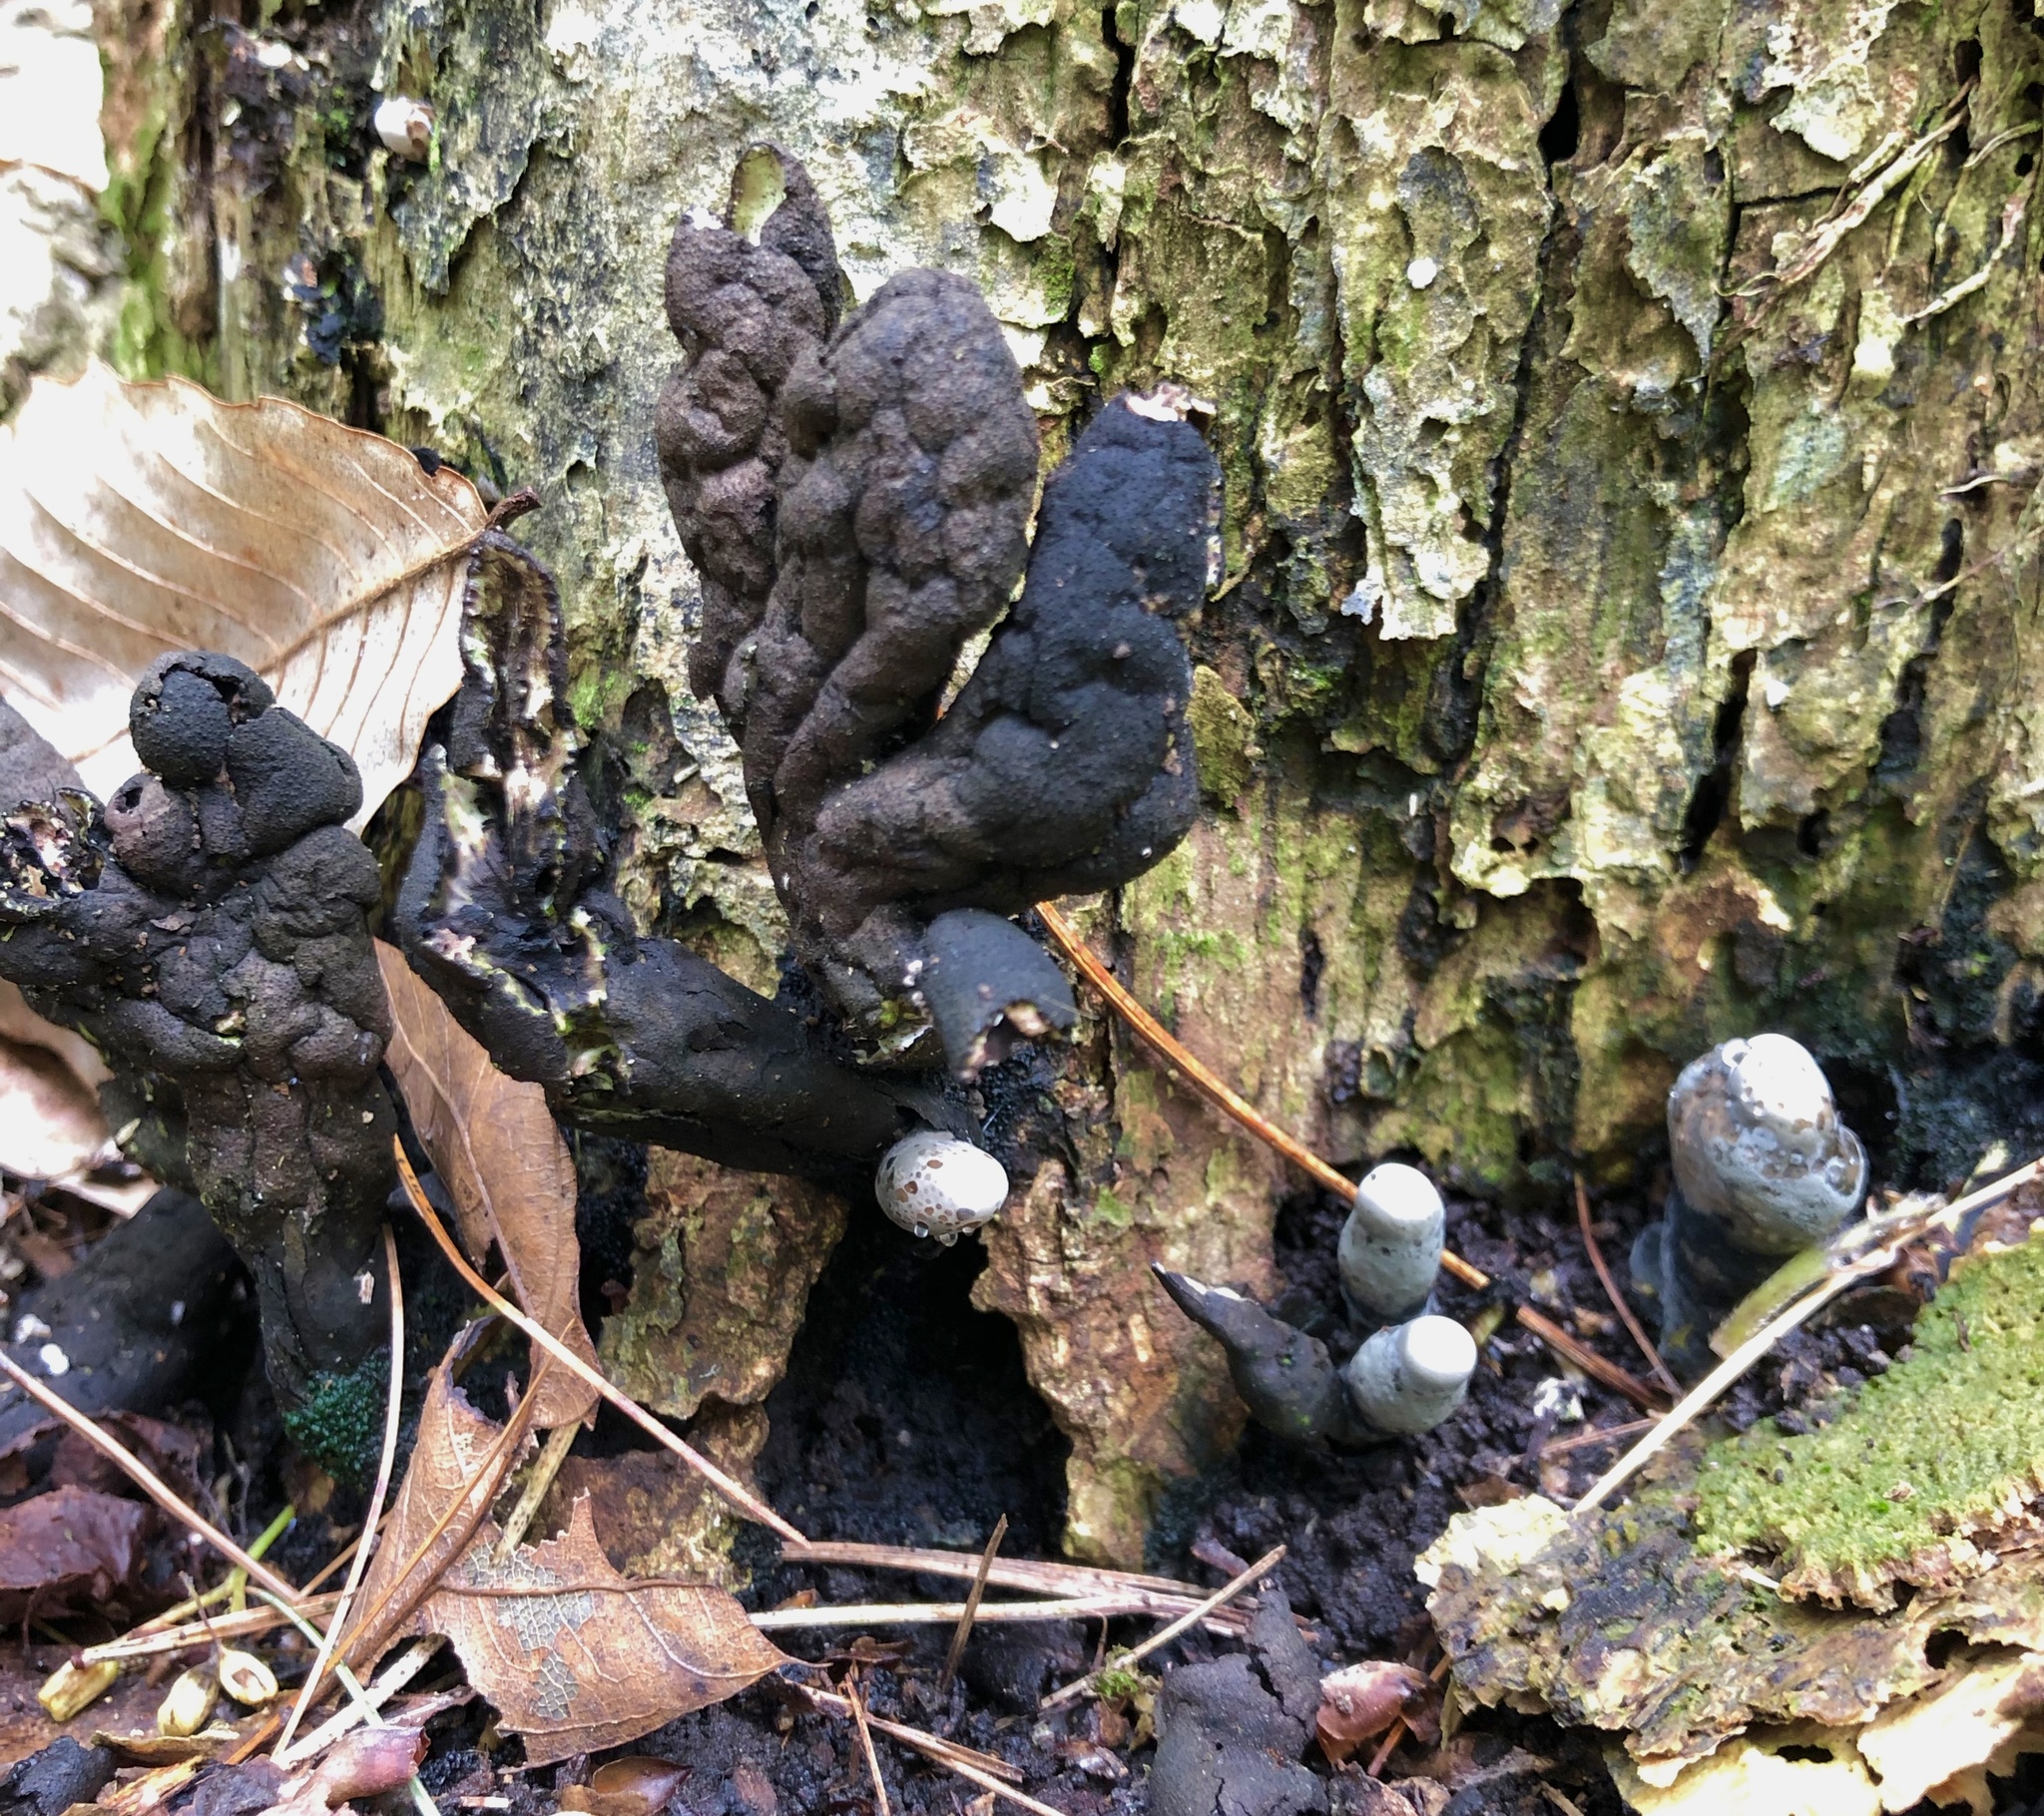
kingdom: Fungi
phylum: Ascomycota
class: Sordariomycetes
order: Xylariales
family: Xylariaceae
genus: Xylaria
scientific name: Xylaria polymorpha
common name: Dead man's fingers
